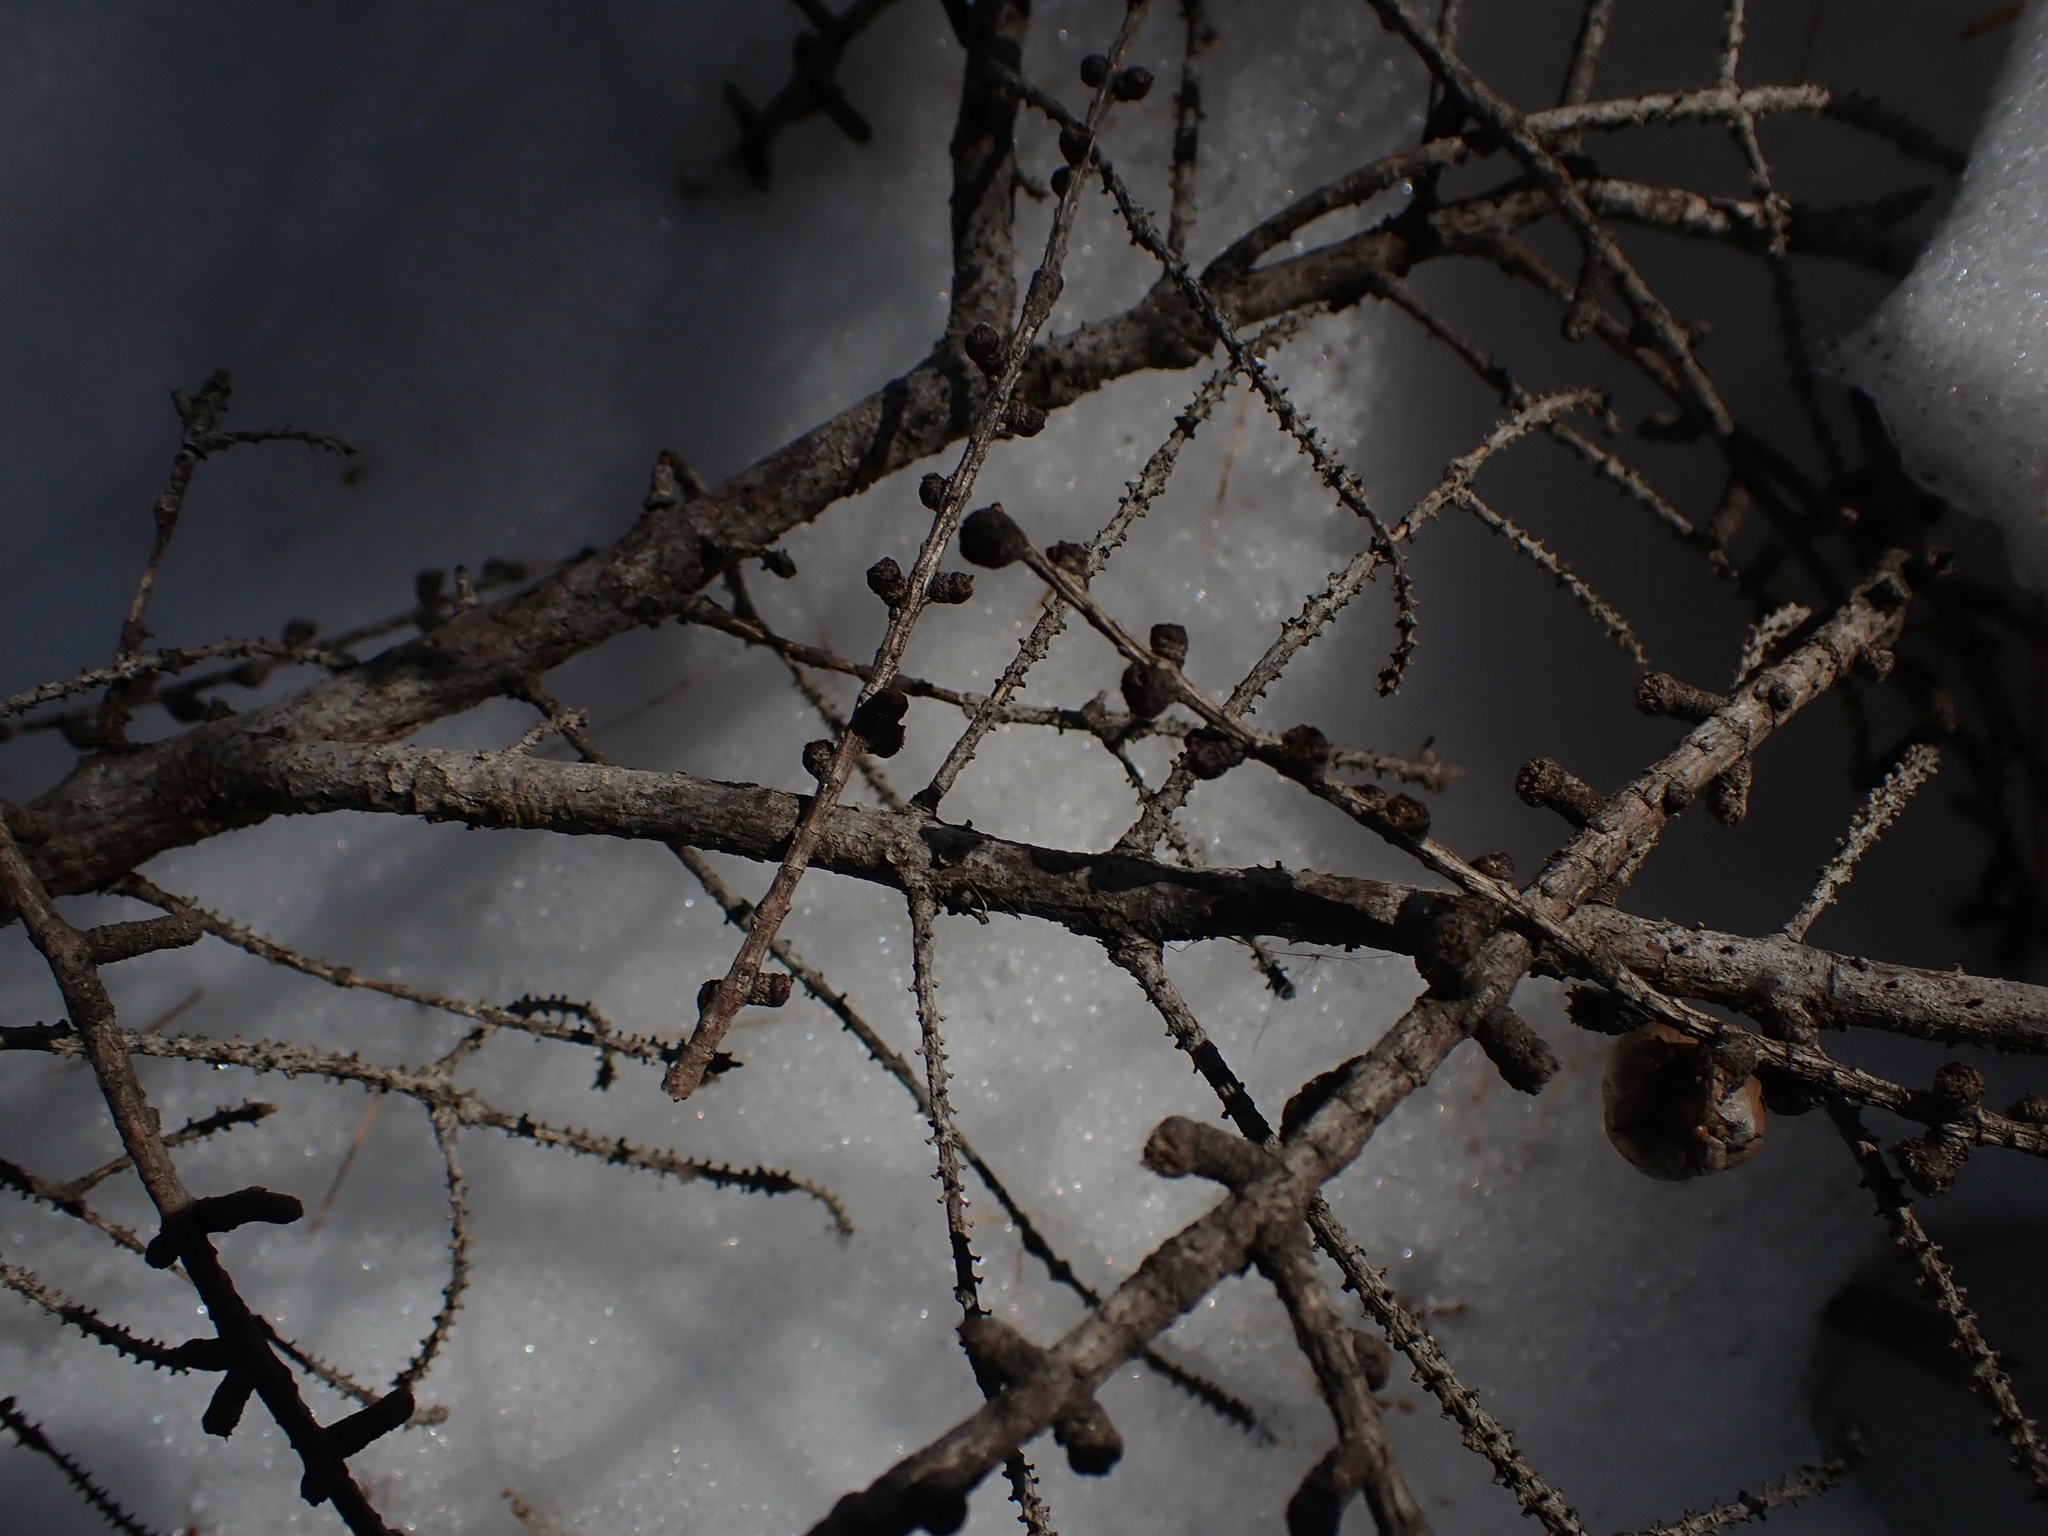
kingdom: Plantae
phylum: Tracheophyta
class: Pinopsida
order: Pinales
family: Pinaceae
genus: Larix
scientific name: Larix laricina
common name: American larch
